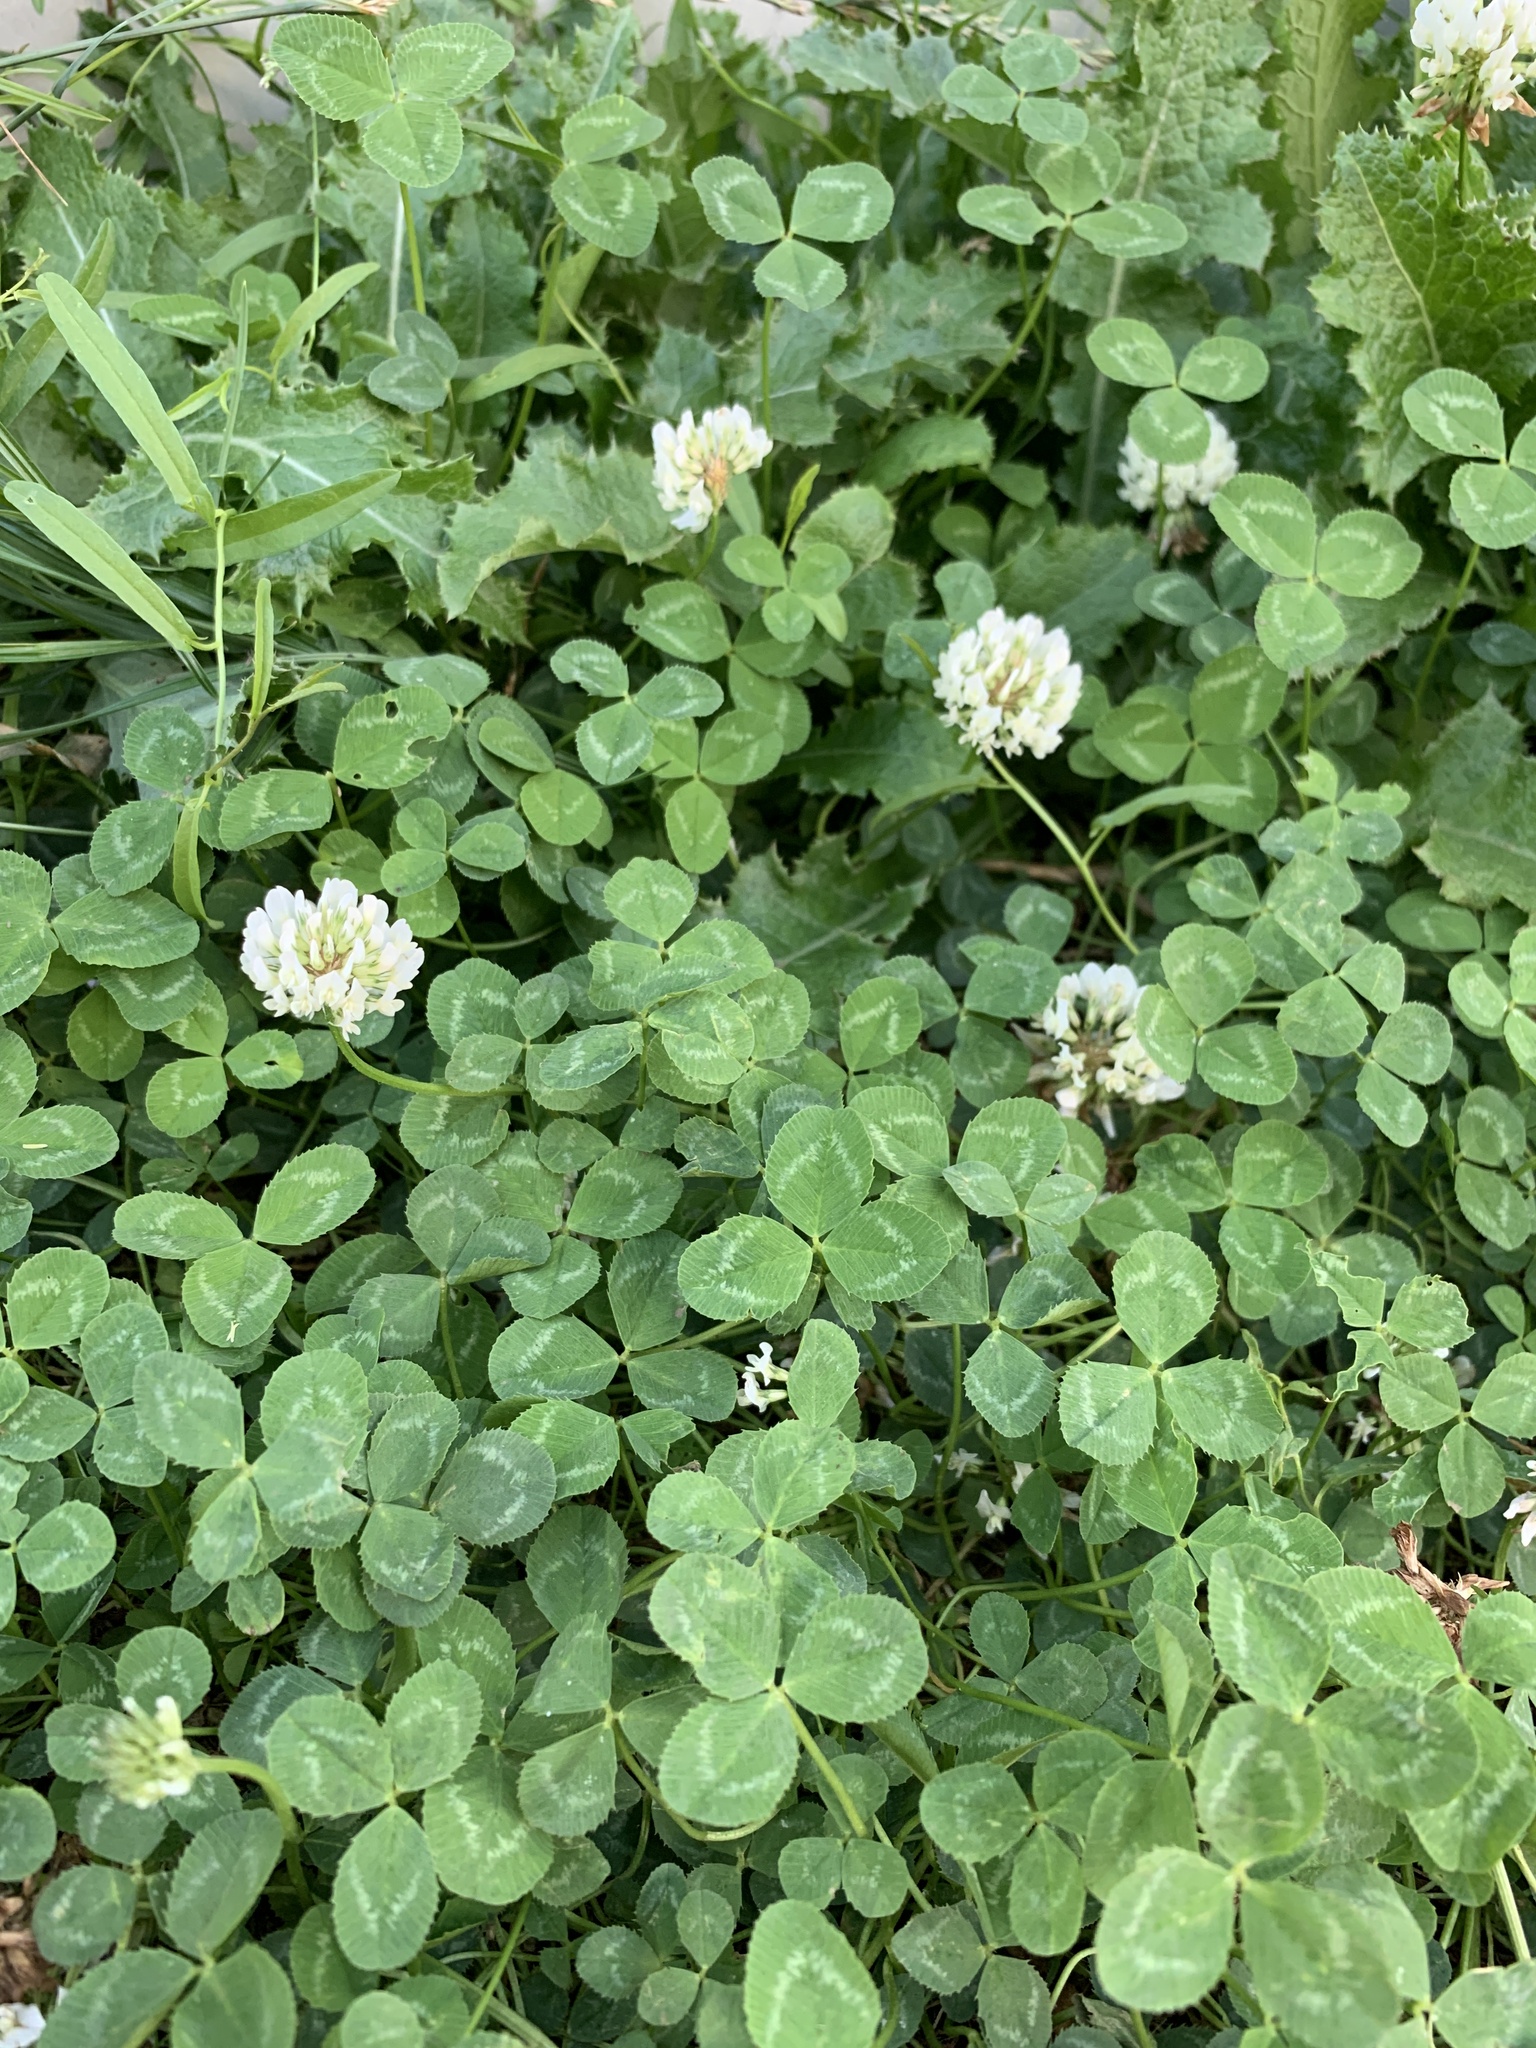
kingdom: Plantae
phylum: Tracheophyta
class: Magnoliopsida
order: Fabales
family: Fabaceae
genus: Trifolium
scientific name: Trifolium repens
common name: White clover
